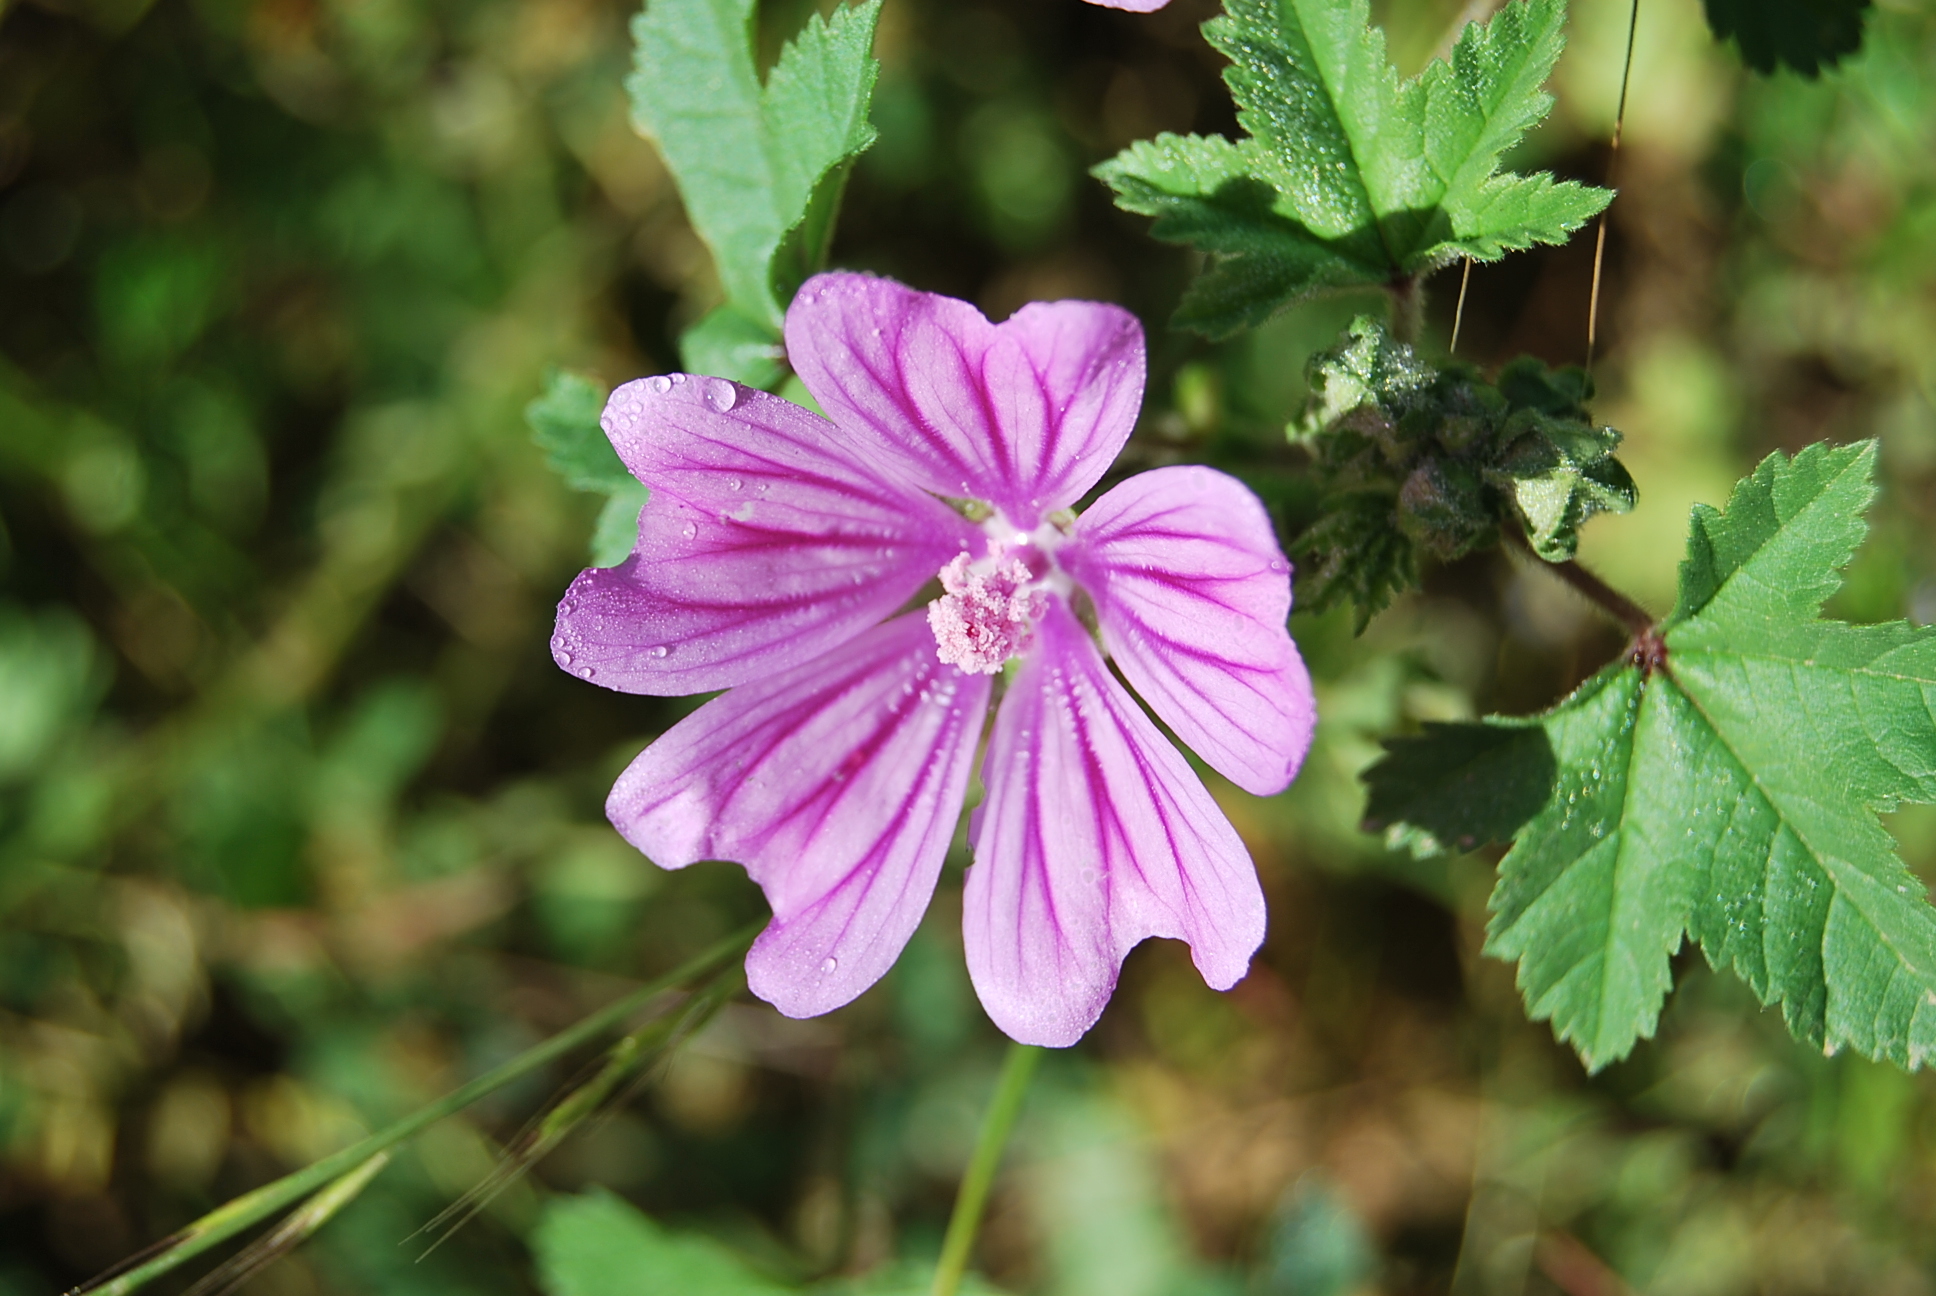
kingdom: Plantae
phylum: Tracheophyta
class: Magnoliopsida
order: Malvales
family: Malvaceae
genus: Malva
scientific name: Malva sylvestris
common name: Common mallow
